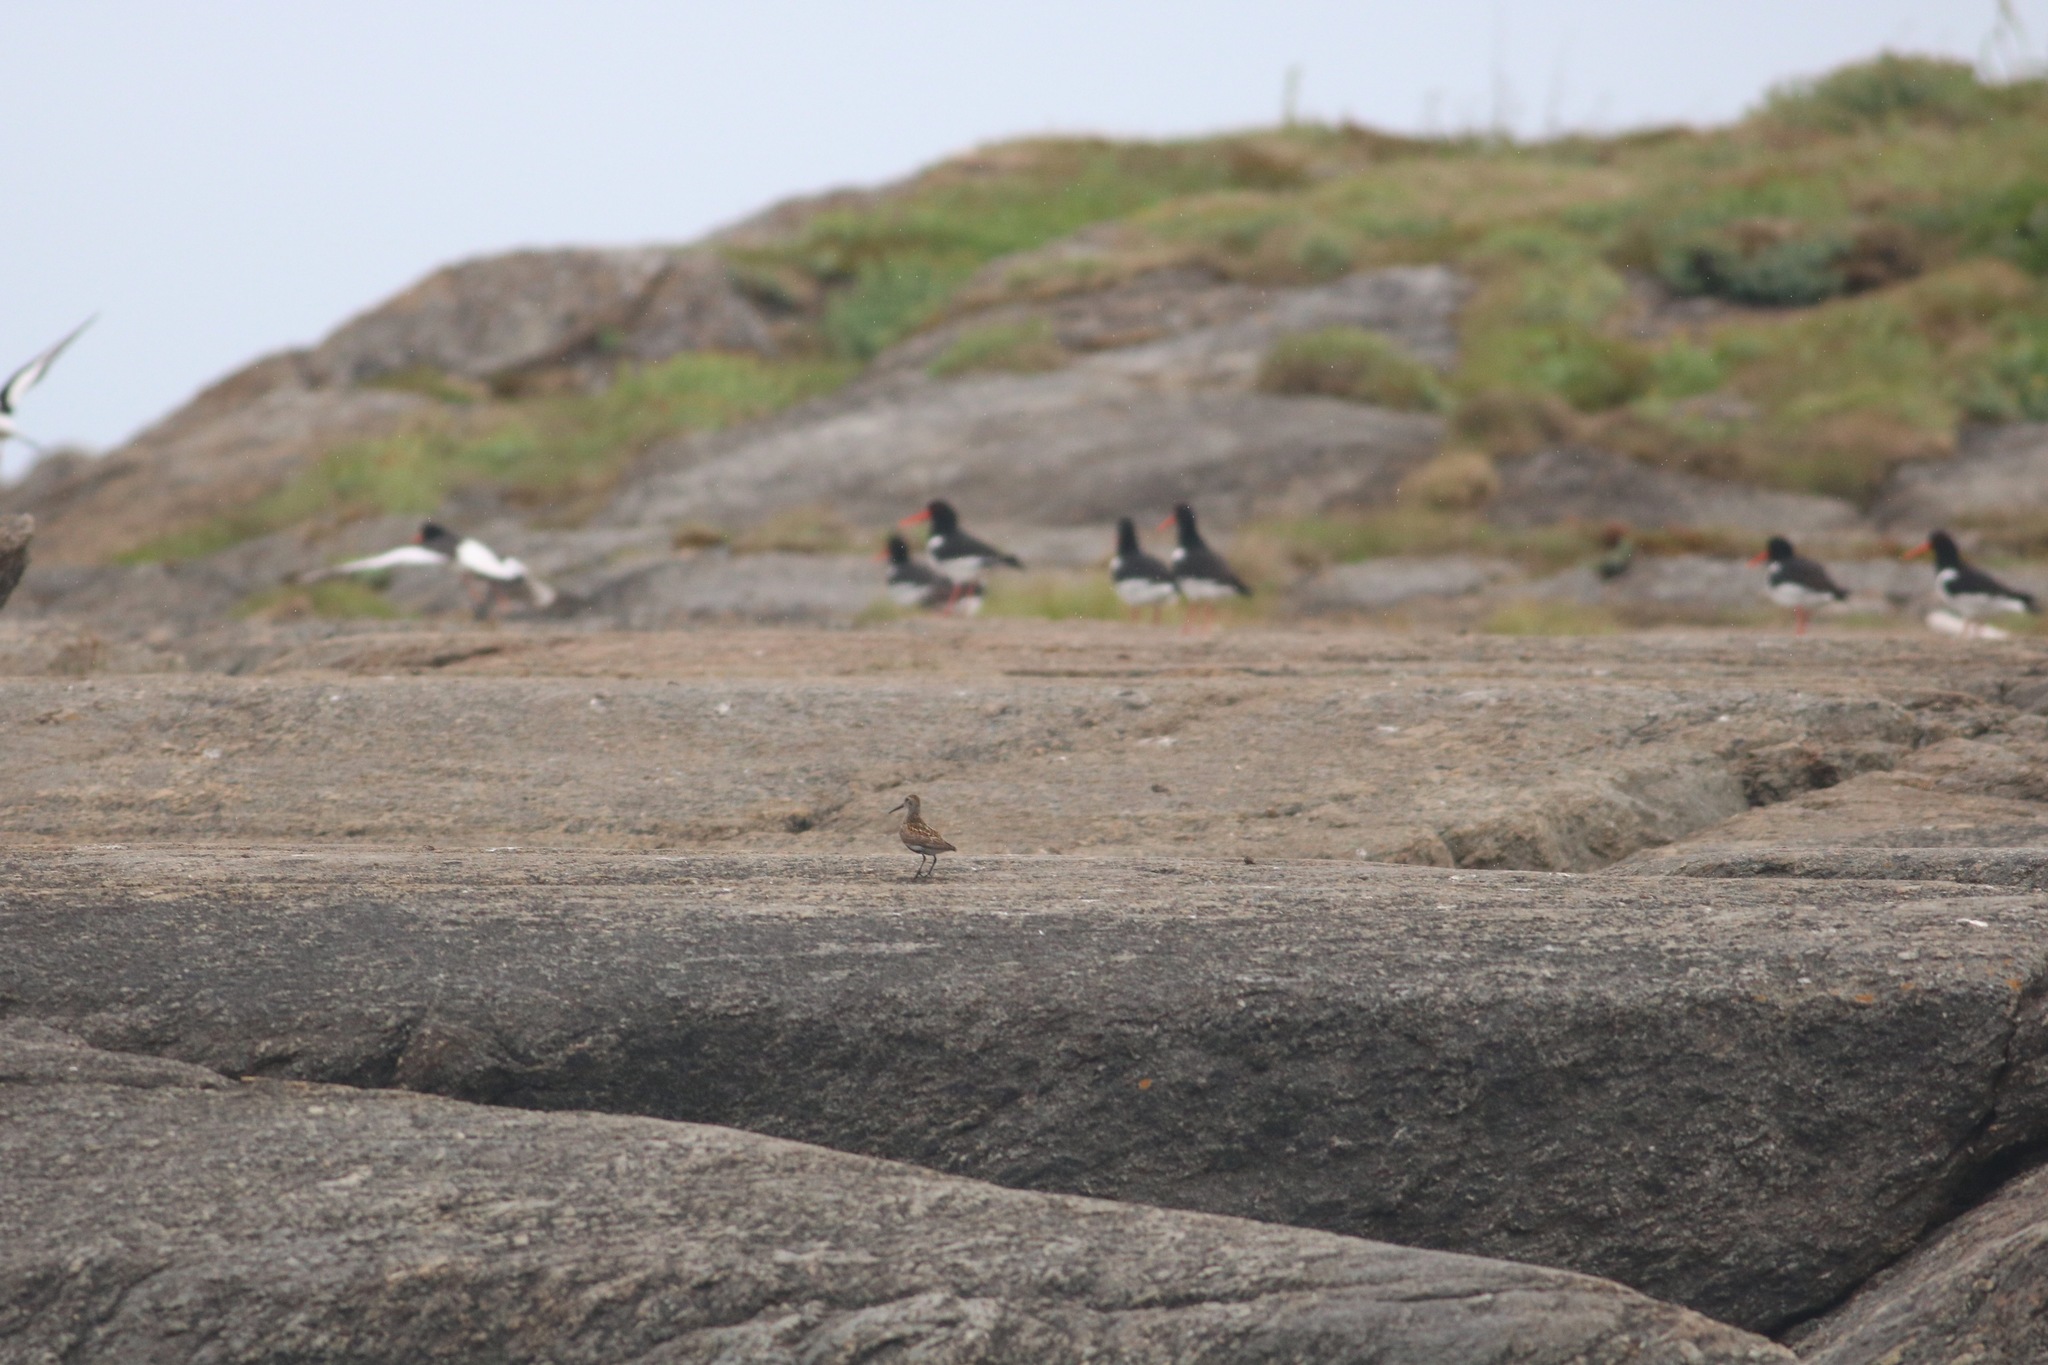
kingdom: Animalia
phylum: Chordata
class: Aves
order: Charadriiformes
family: Scolopacidae
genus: Calidris
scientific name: Calidris alpina
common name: Dunlin
